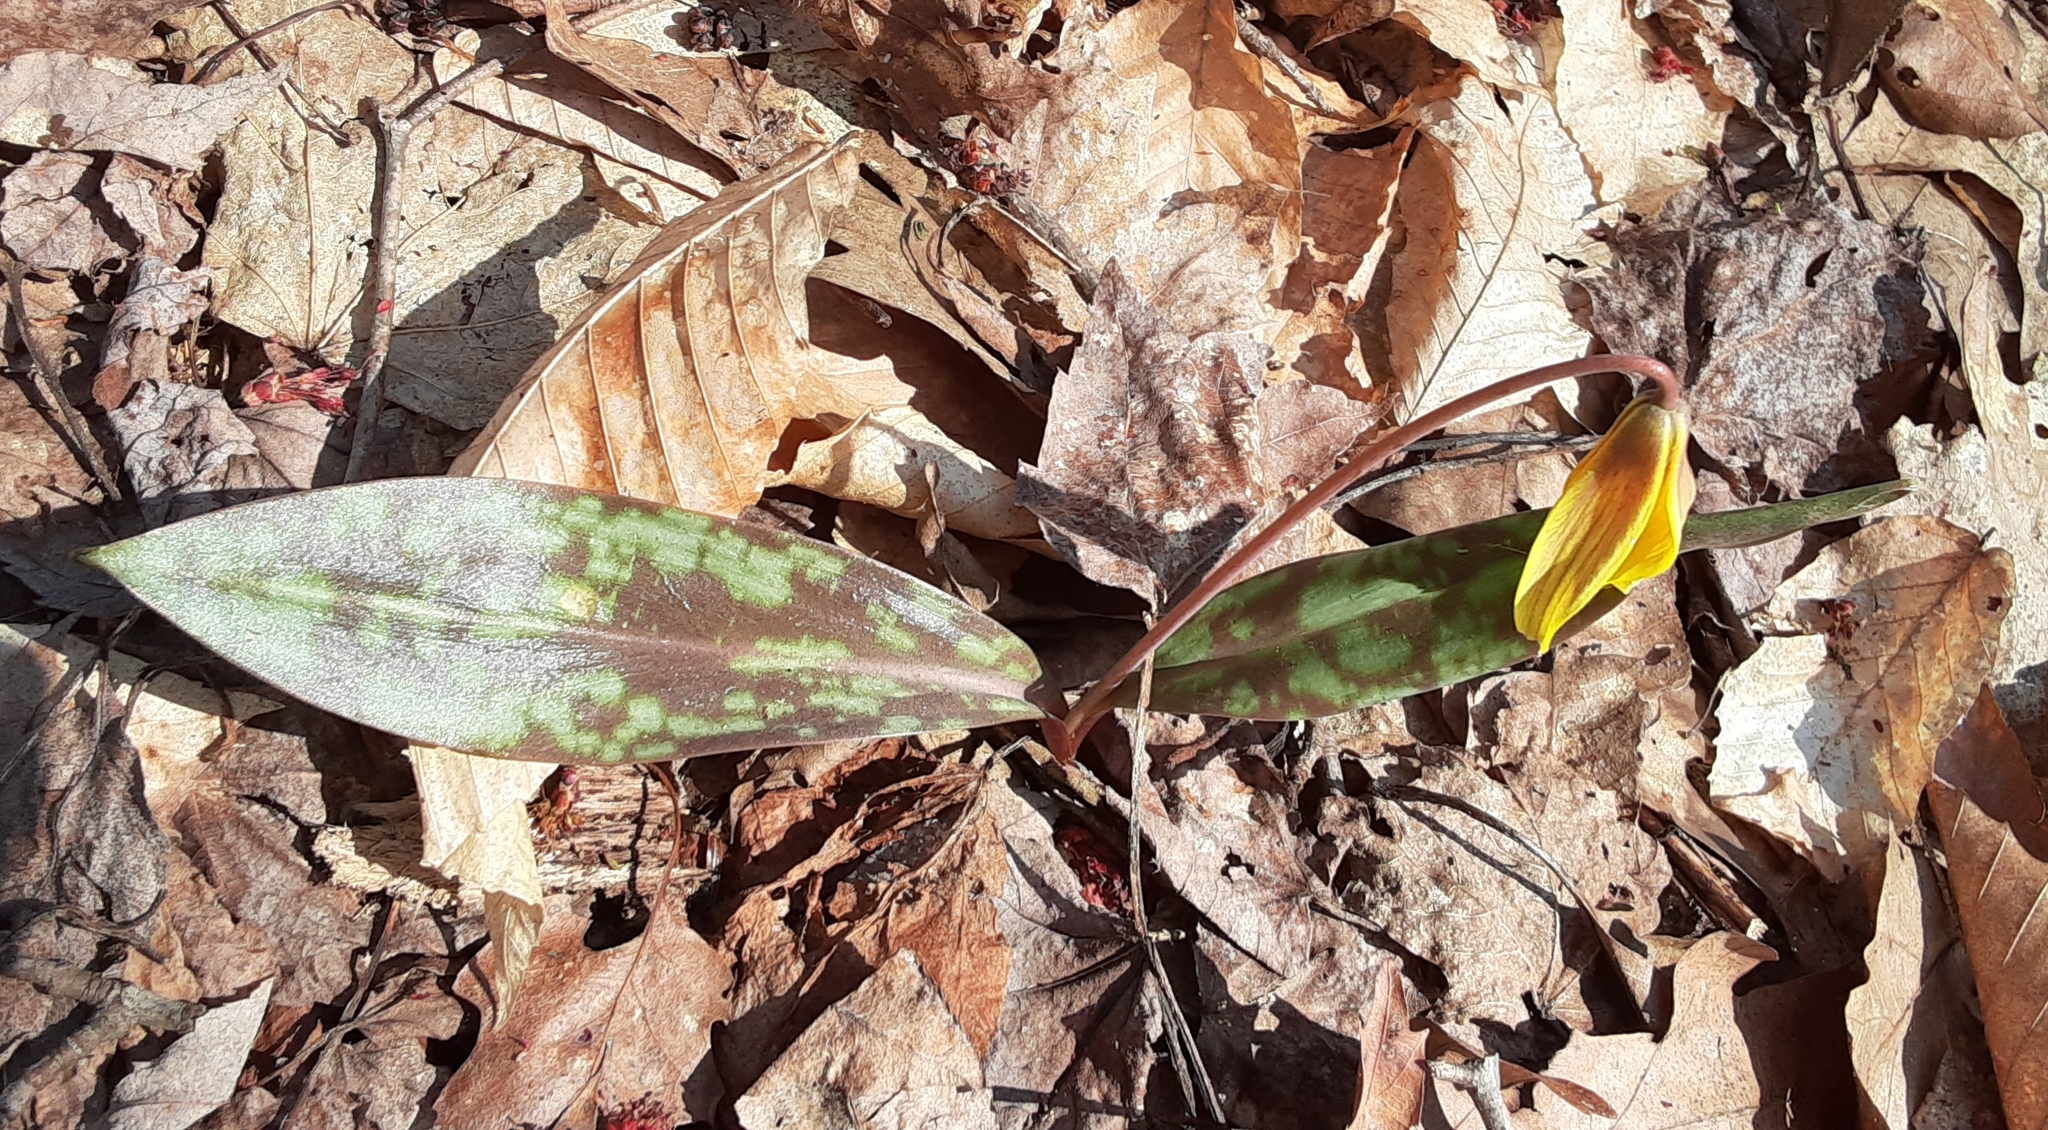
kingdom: Plantae
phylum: Tracheophyta
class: Liliopsida
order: Liliales
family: Liliaceae
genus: Erythronium
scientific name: Erythronium americanum
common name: Yellow adder's-tongue
